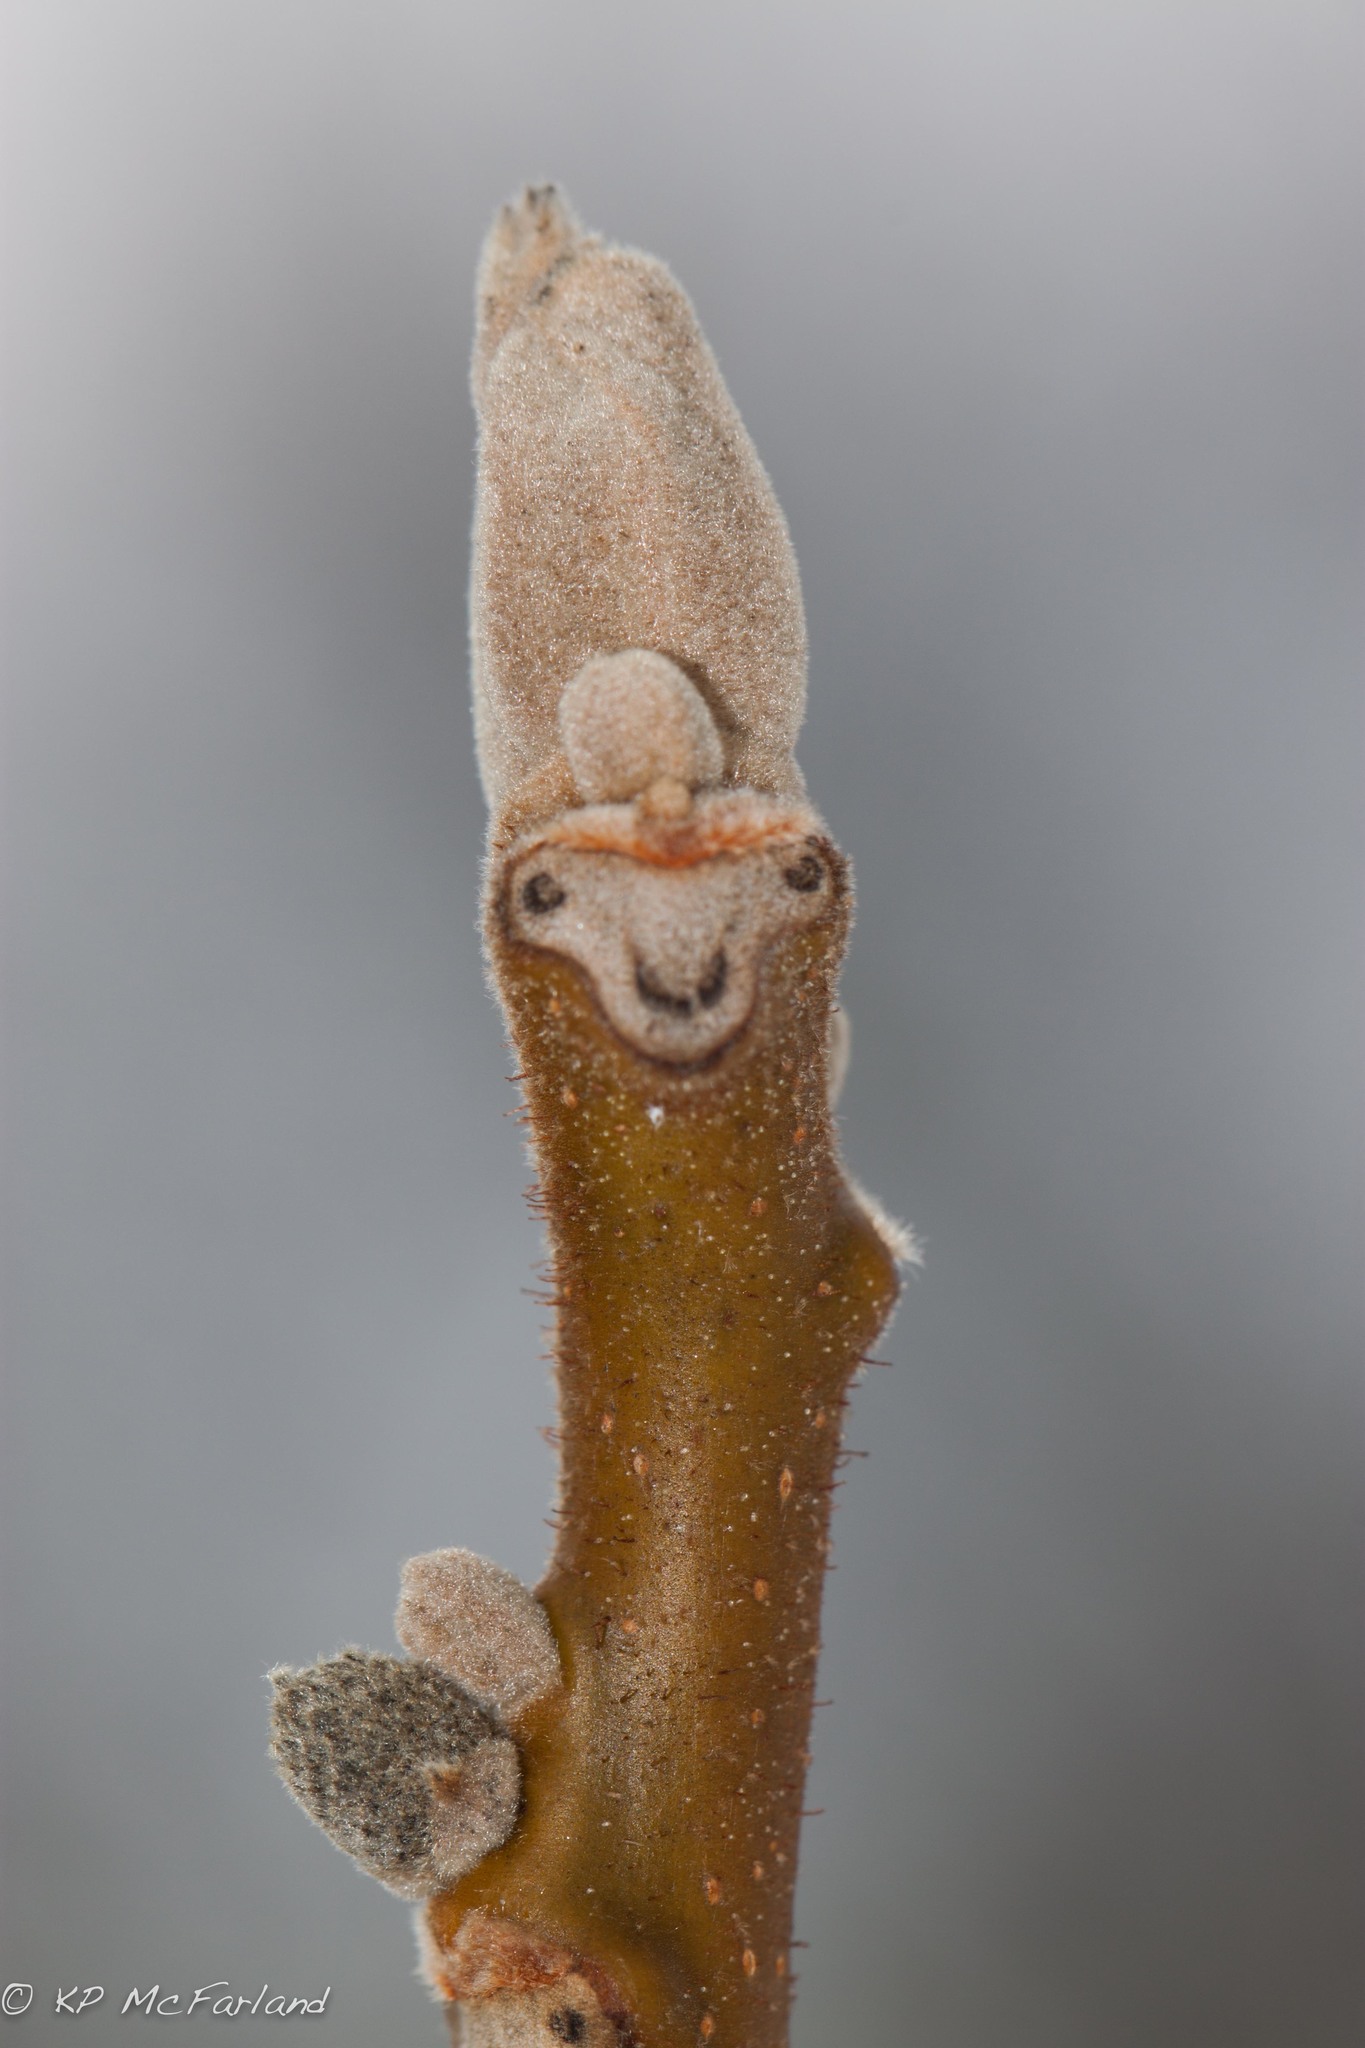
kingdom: Plantae
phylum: Tracheophyta
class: Magnoliopsida
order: Fagales
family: Juglandaceae
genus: Juglans
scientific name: Juglans cinerea
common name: Butternut
